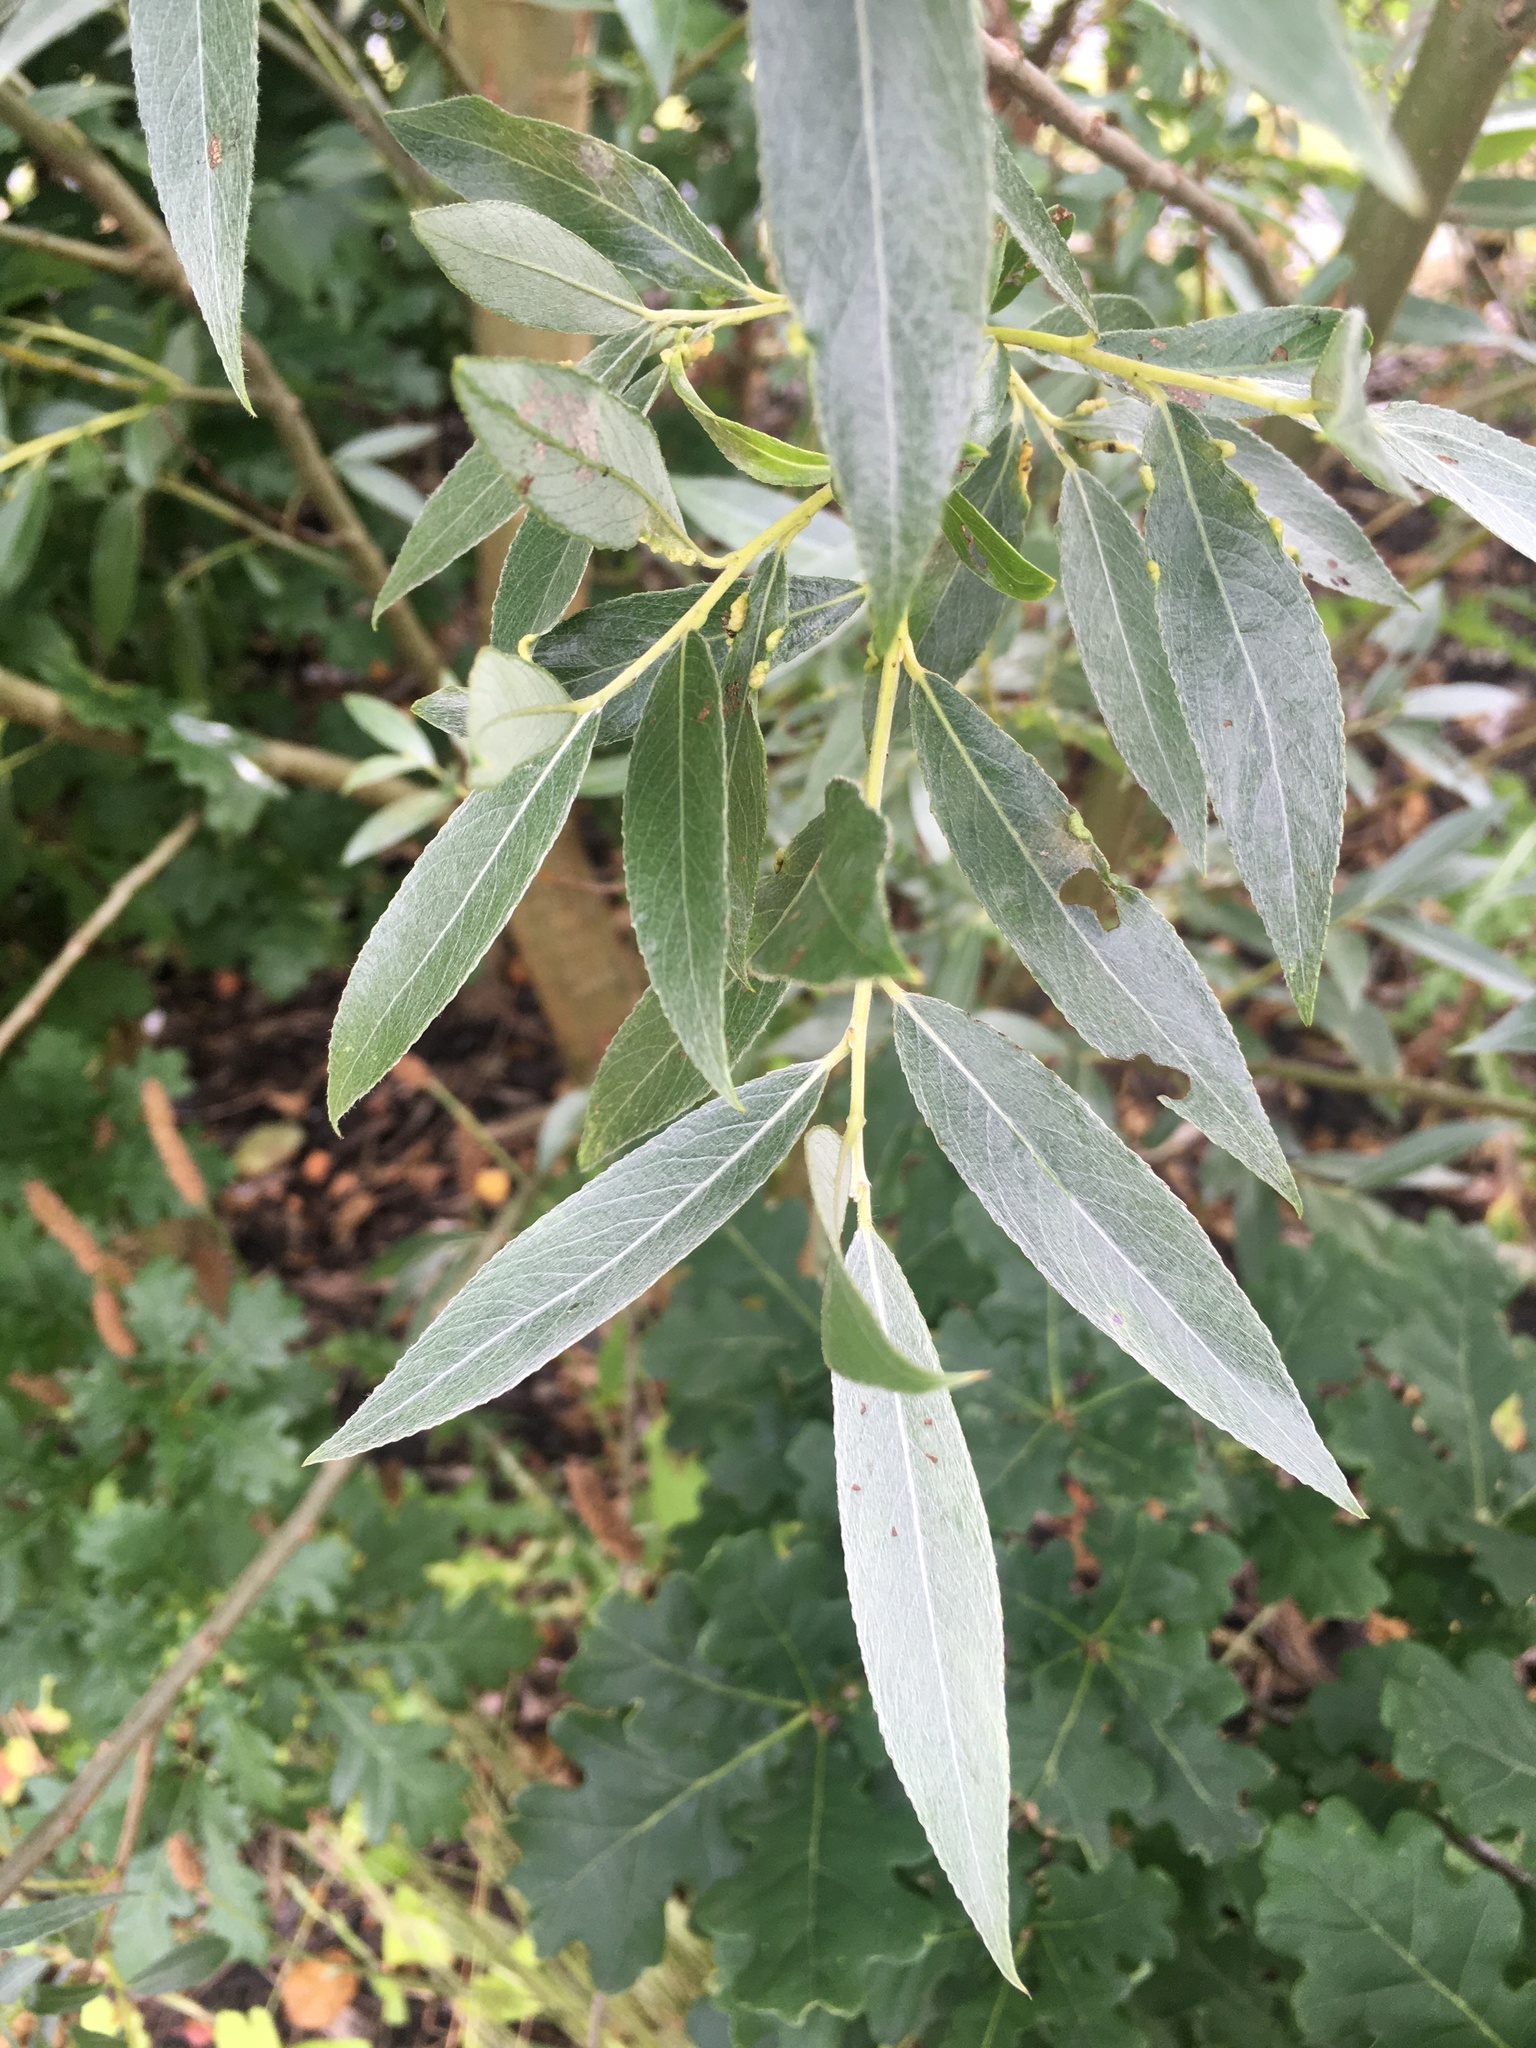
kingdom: Plantae
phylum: Tracheophyta
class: Magnoliopsida
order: Malpighiales
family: Salicaceae
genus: Salix
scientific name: Salix alba
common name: White willow
